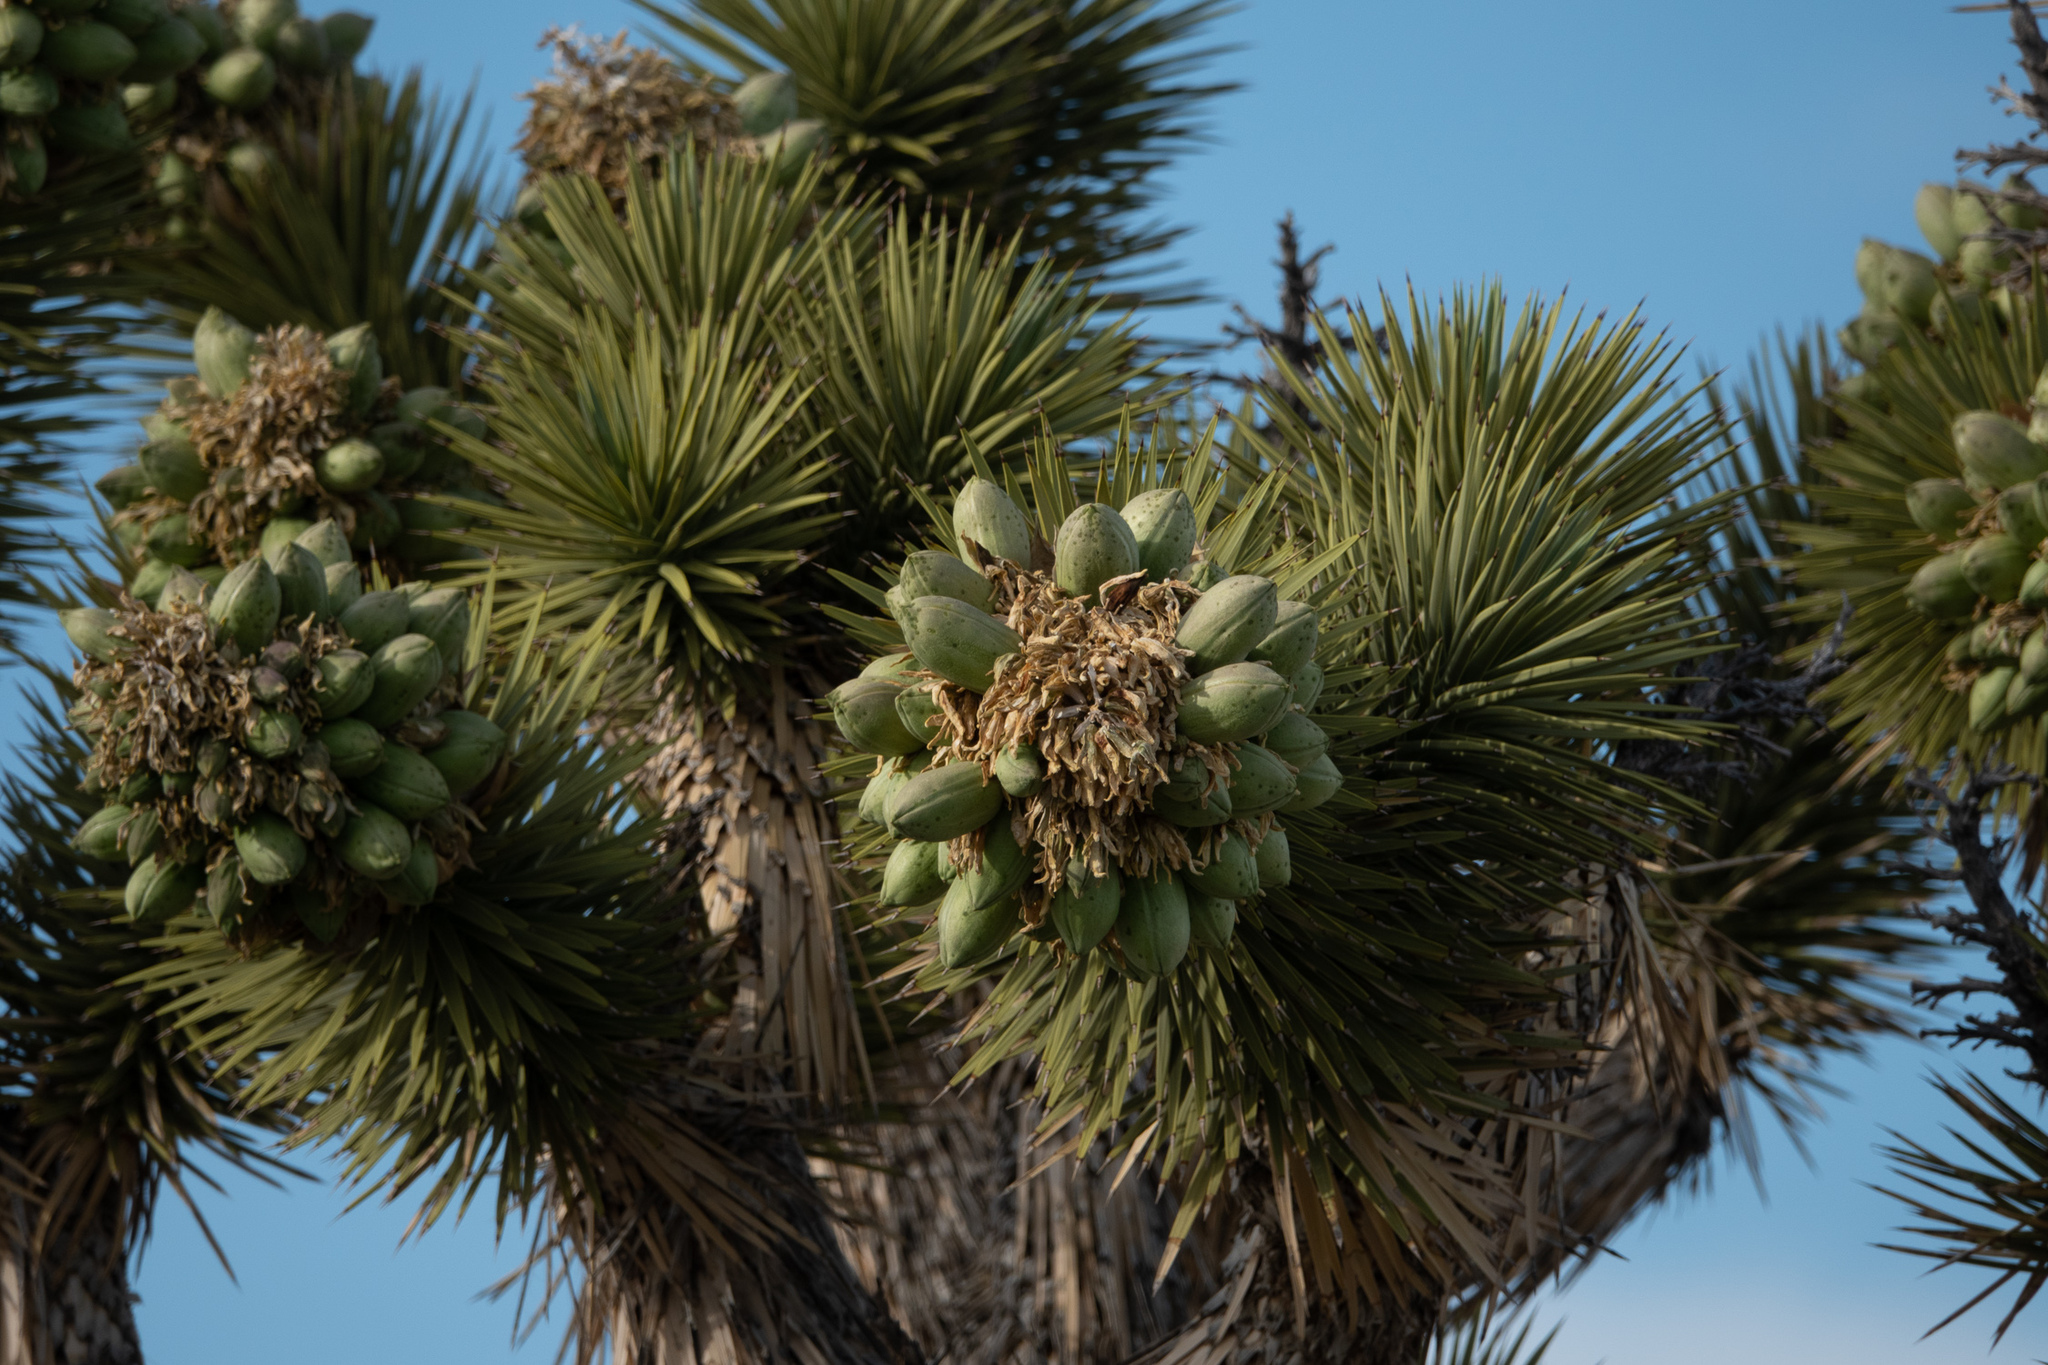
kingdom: Plantae
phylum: Tracheophyta
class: Liliopsida
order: Asparagales
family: Asparagaceae
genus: Yucca
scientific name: Yucca brevifolia
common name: Joshua tree
